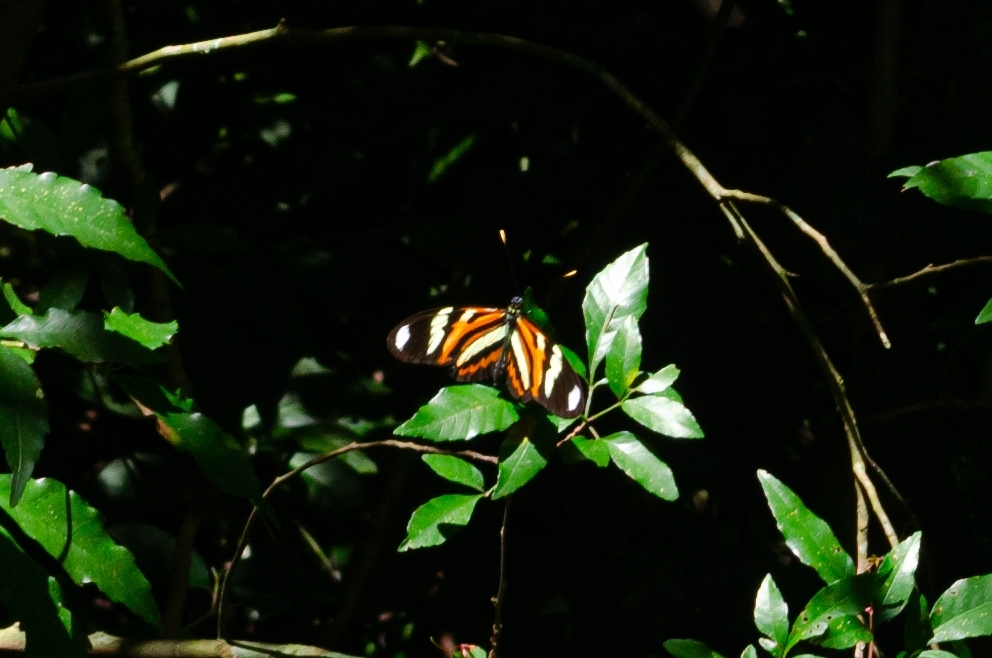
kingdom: Animalia
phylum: Arthropoda
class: Insecta
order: Lepidoptera
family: Nymphalidae
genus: Heliconius
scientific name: Heliconius ethilla
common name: Ethilia longwing
